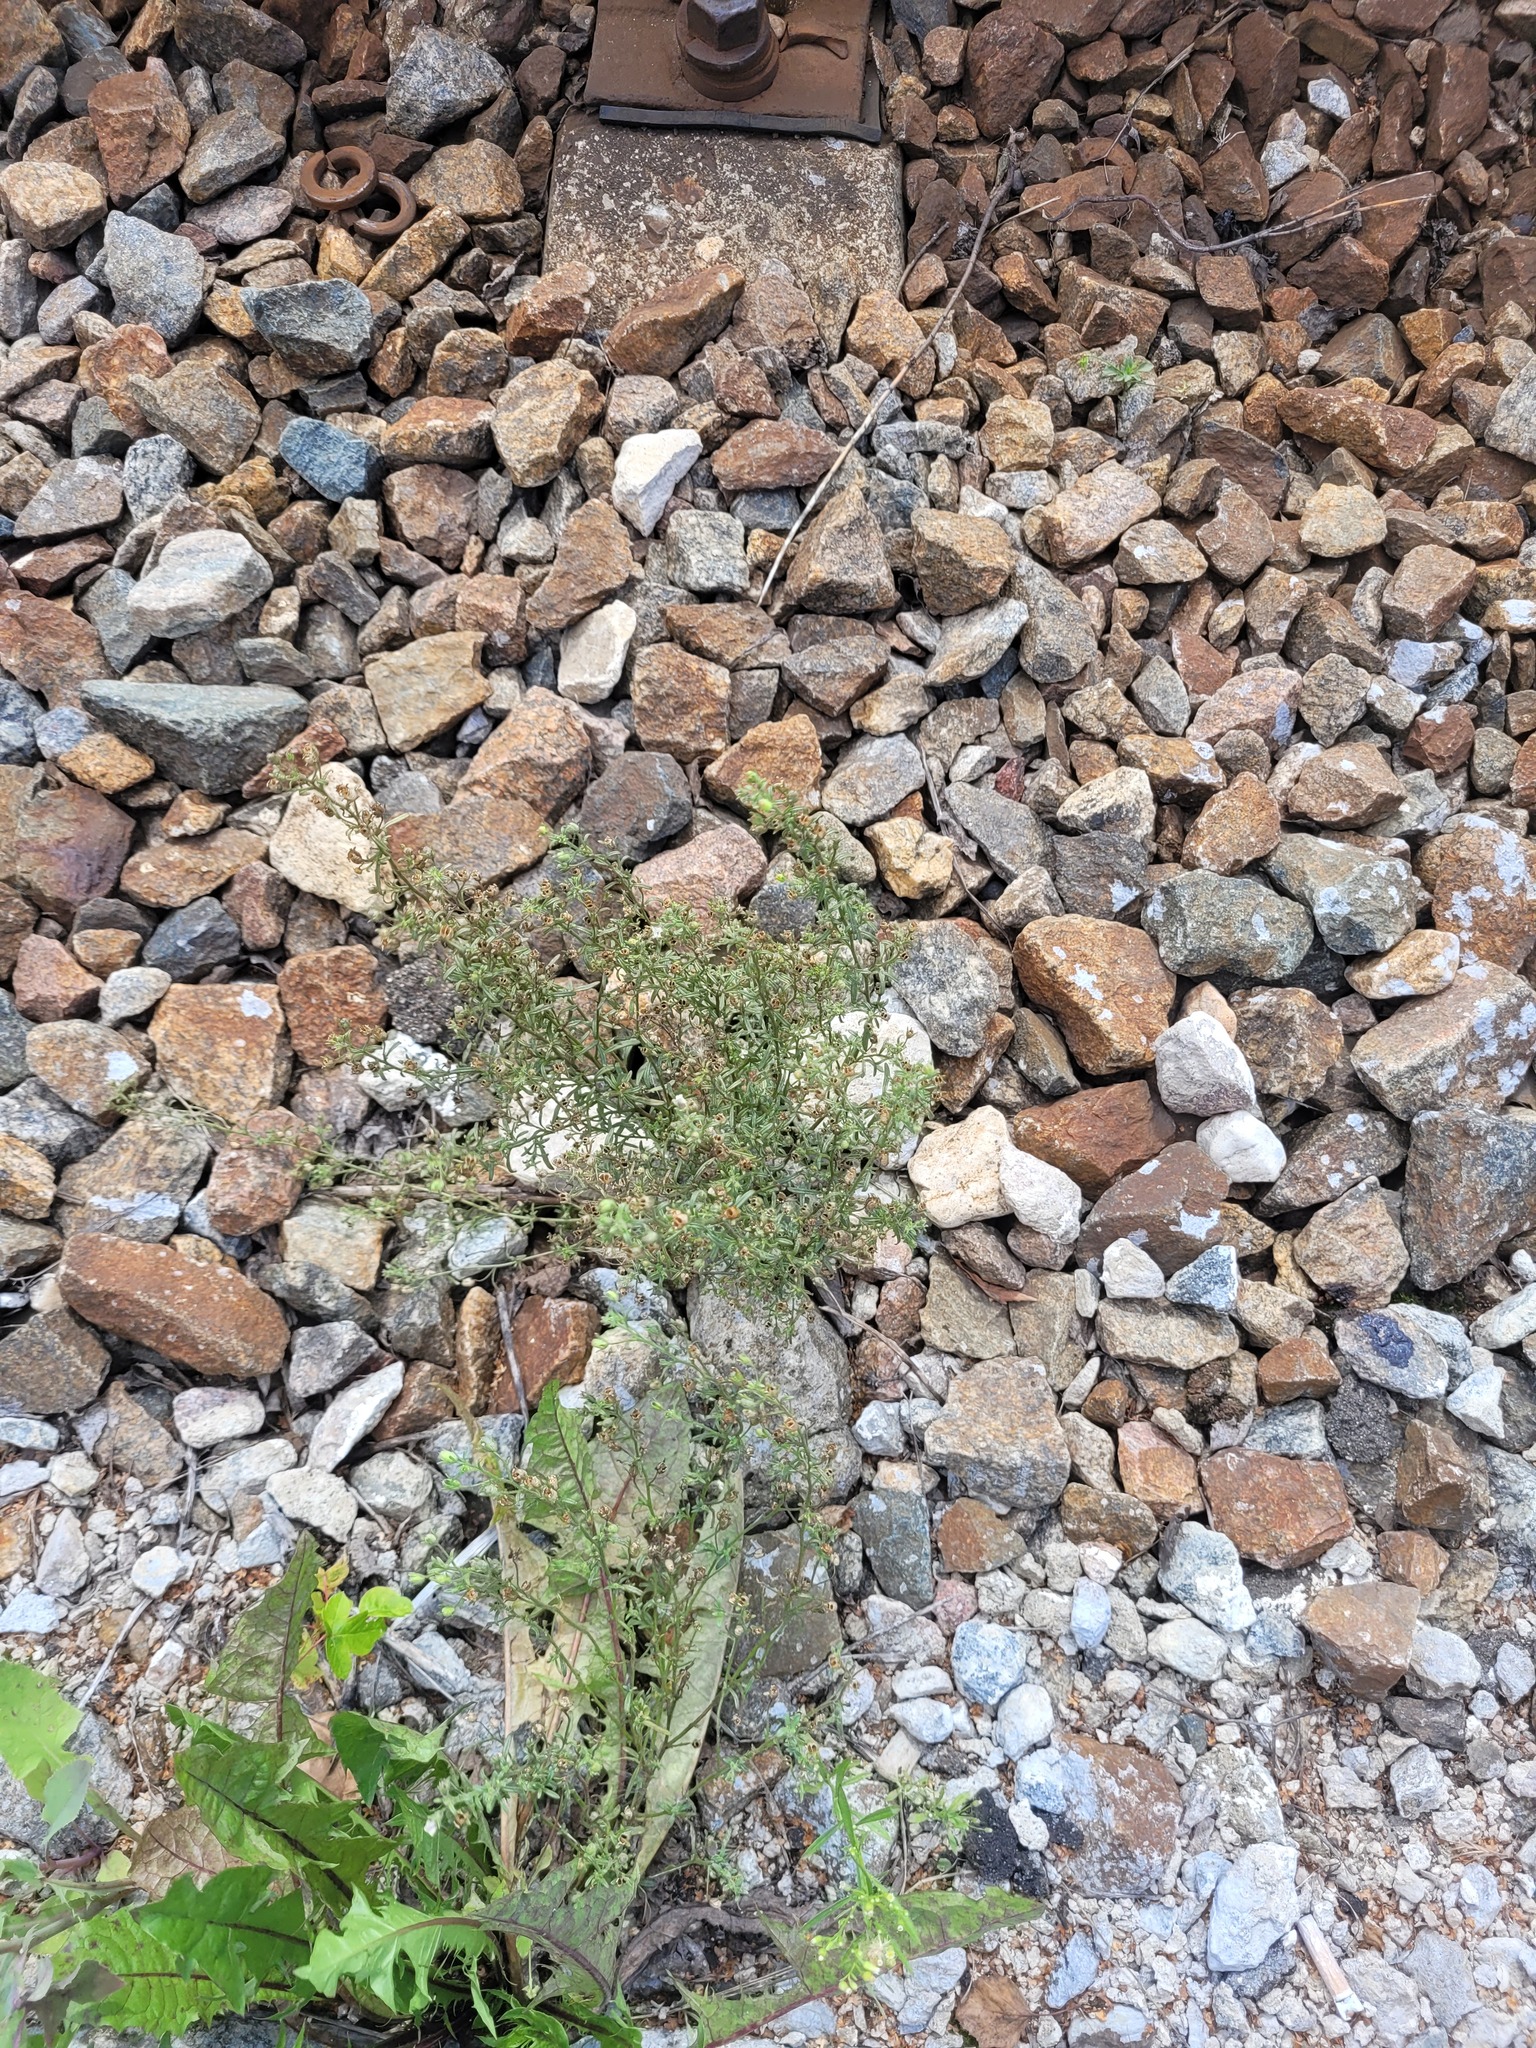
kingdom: Plantae
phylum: Tracheophyta
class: Magnoliopsida
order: Lamiales
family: Plantaginaceae
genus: Chaenorhinum
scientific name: Chaenorhinum minus
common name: Dwarf snapdragon
